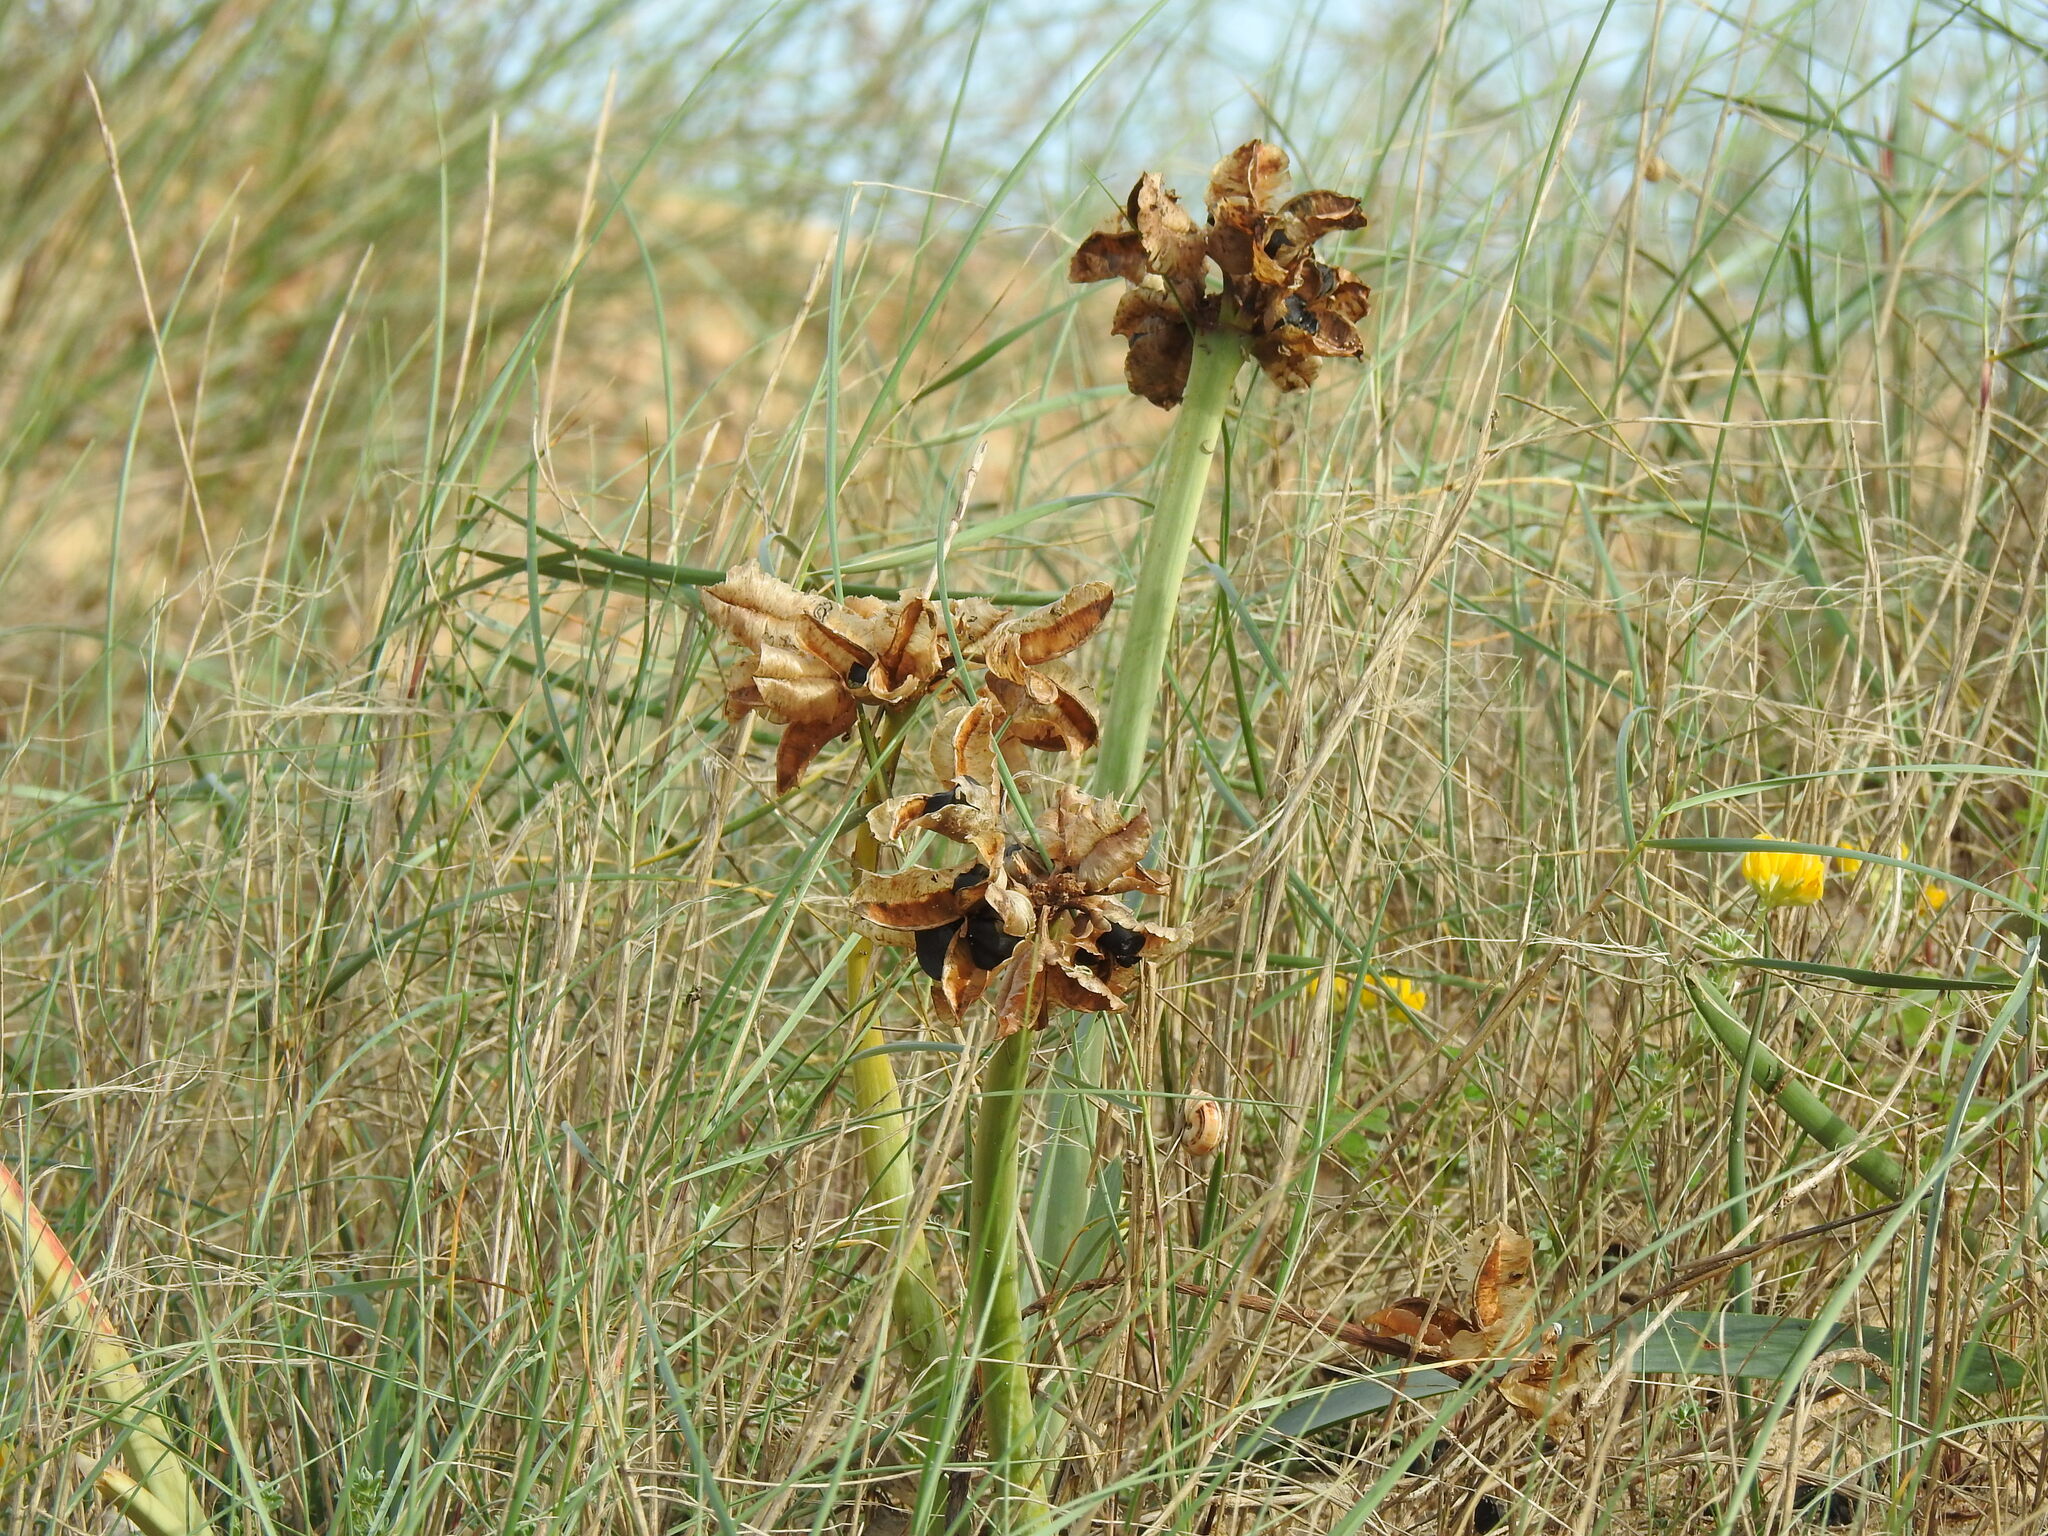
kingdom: Plantae
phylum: Tracheophyta
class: Liliopsida
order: Asparagales
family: Amaryllidaceae
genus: Pancratium
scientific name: Pancratium maritimum
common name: Sea-daffodil
